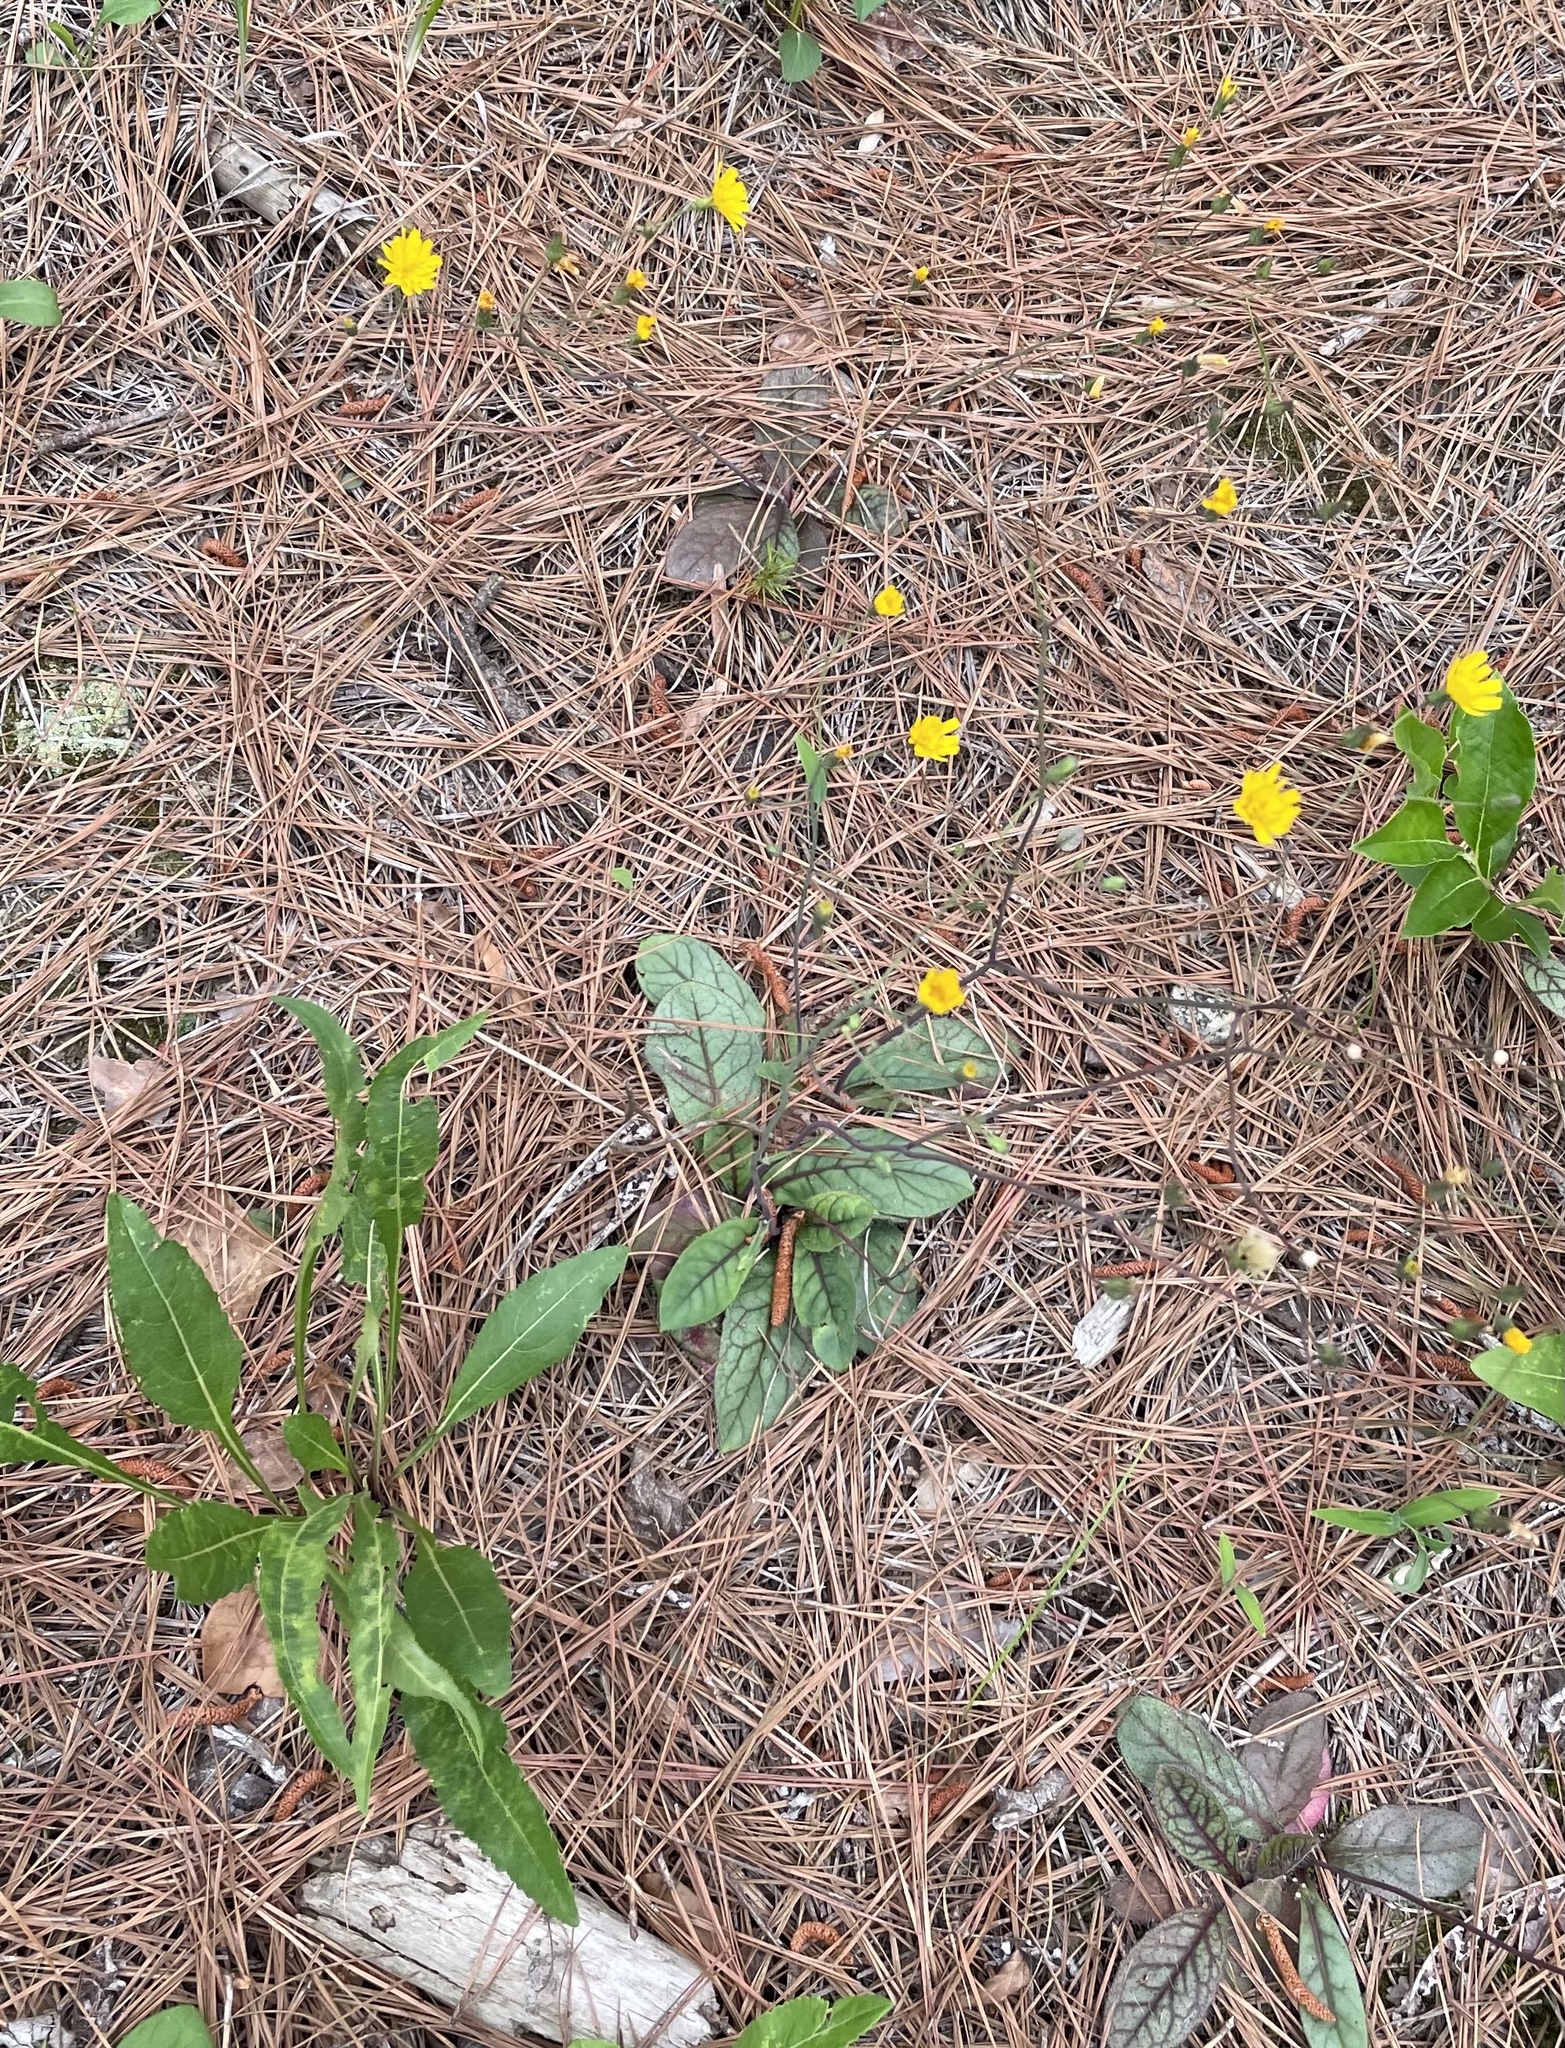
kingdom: Plantae
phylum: Tracheophyta
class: Magnoliopsida
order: Asterales
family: Asteraceae
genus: Hieracium
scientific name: Hieracium venosum
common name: Rattlesnake hawkweed
